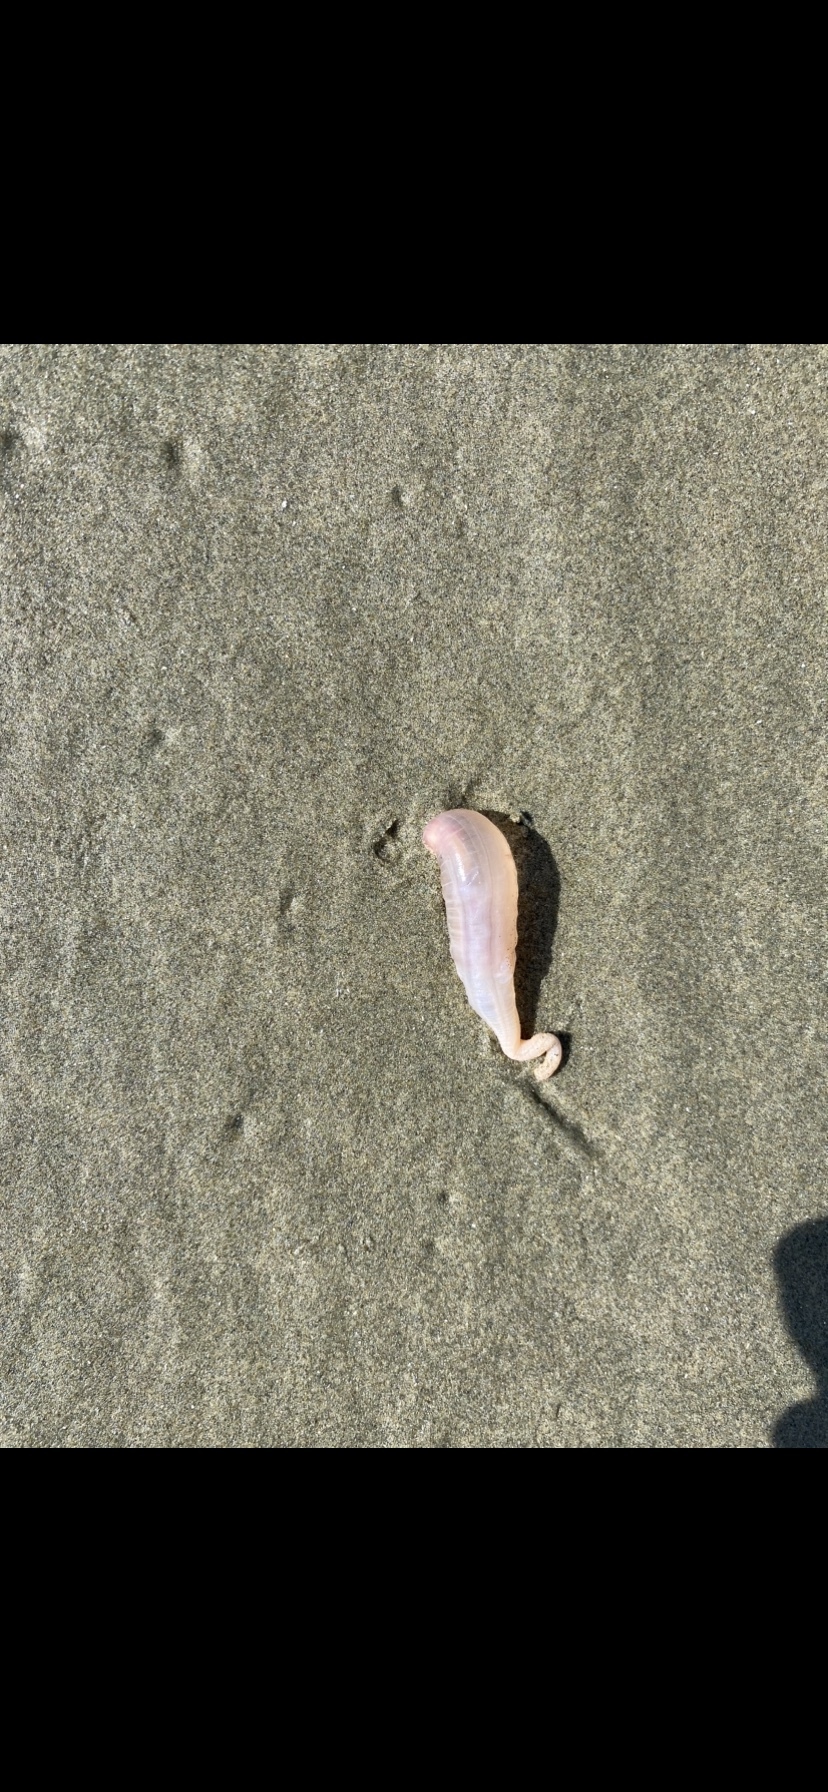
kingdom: Animalia
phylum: Echinodermata
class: Holothuroidea
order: Molpadida
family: Caudinidae
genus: Paracaudina
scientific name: Paracaudina chilensis
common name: Rat-tailed fusiform sea cucumber
